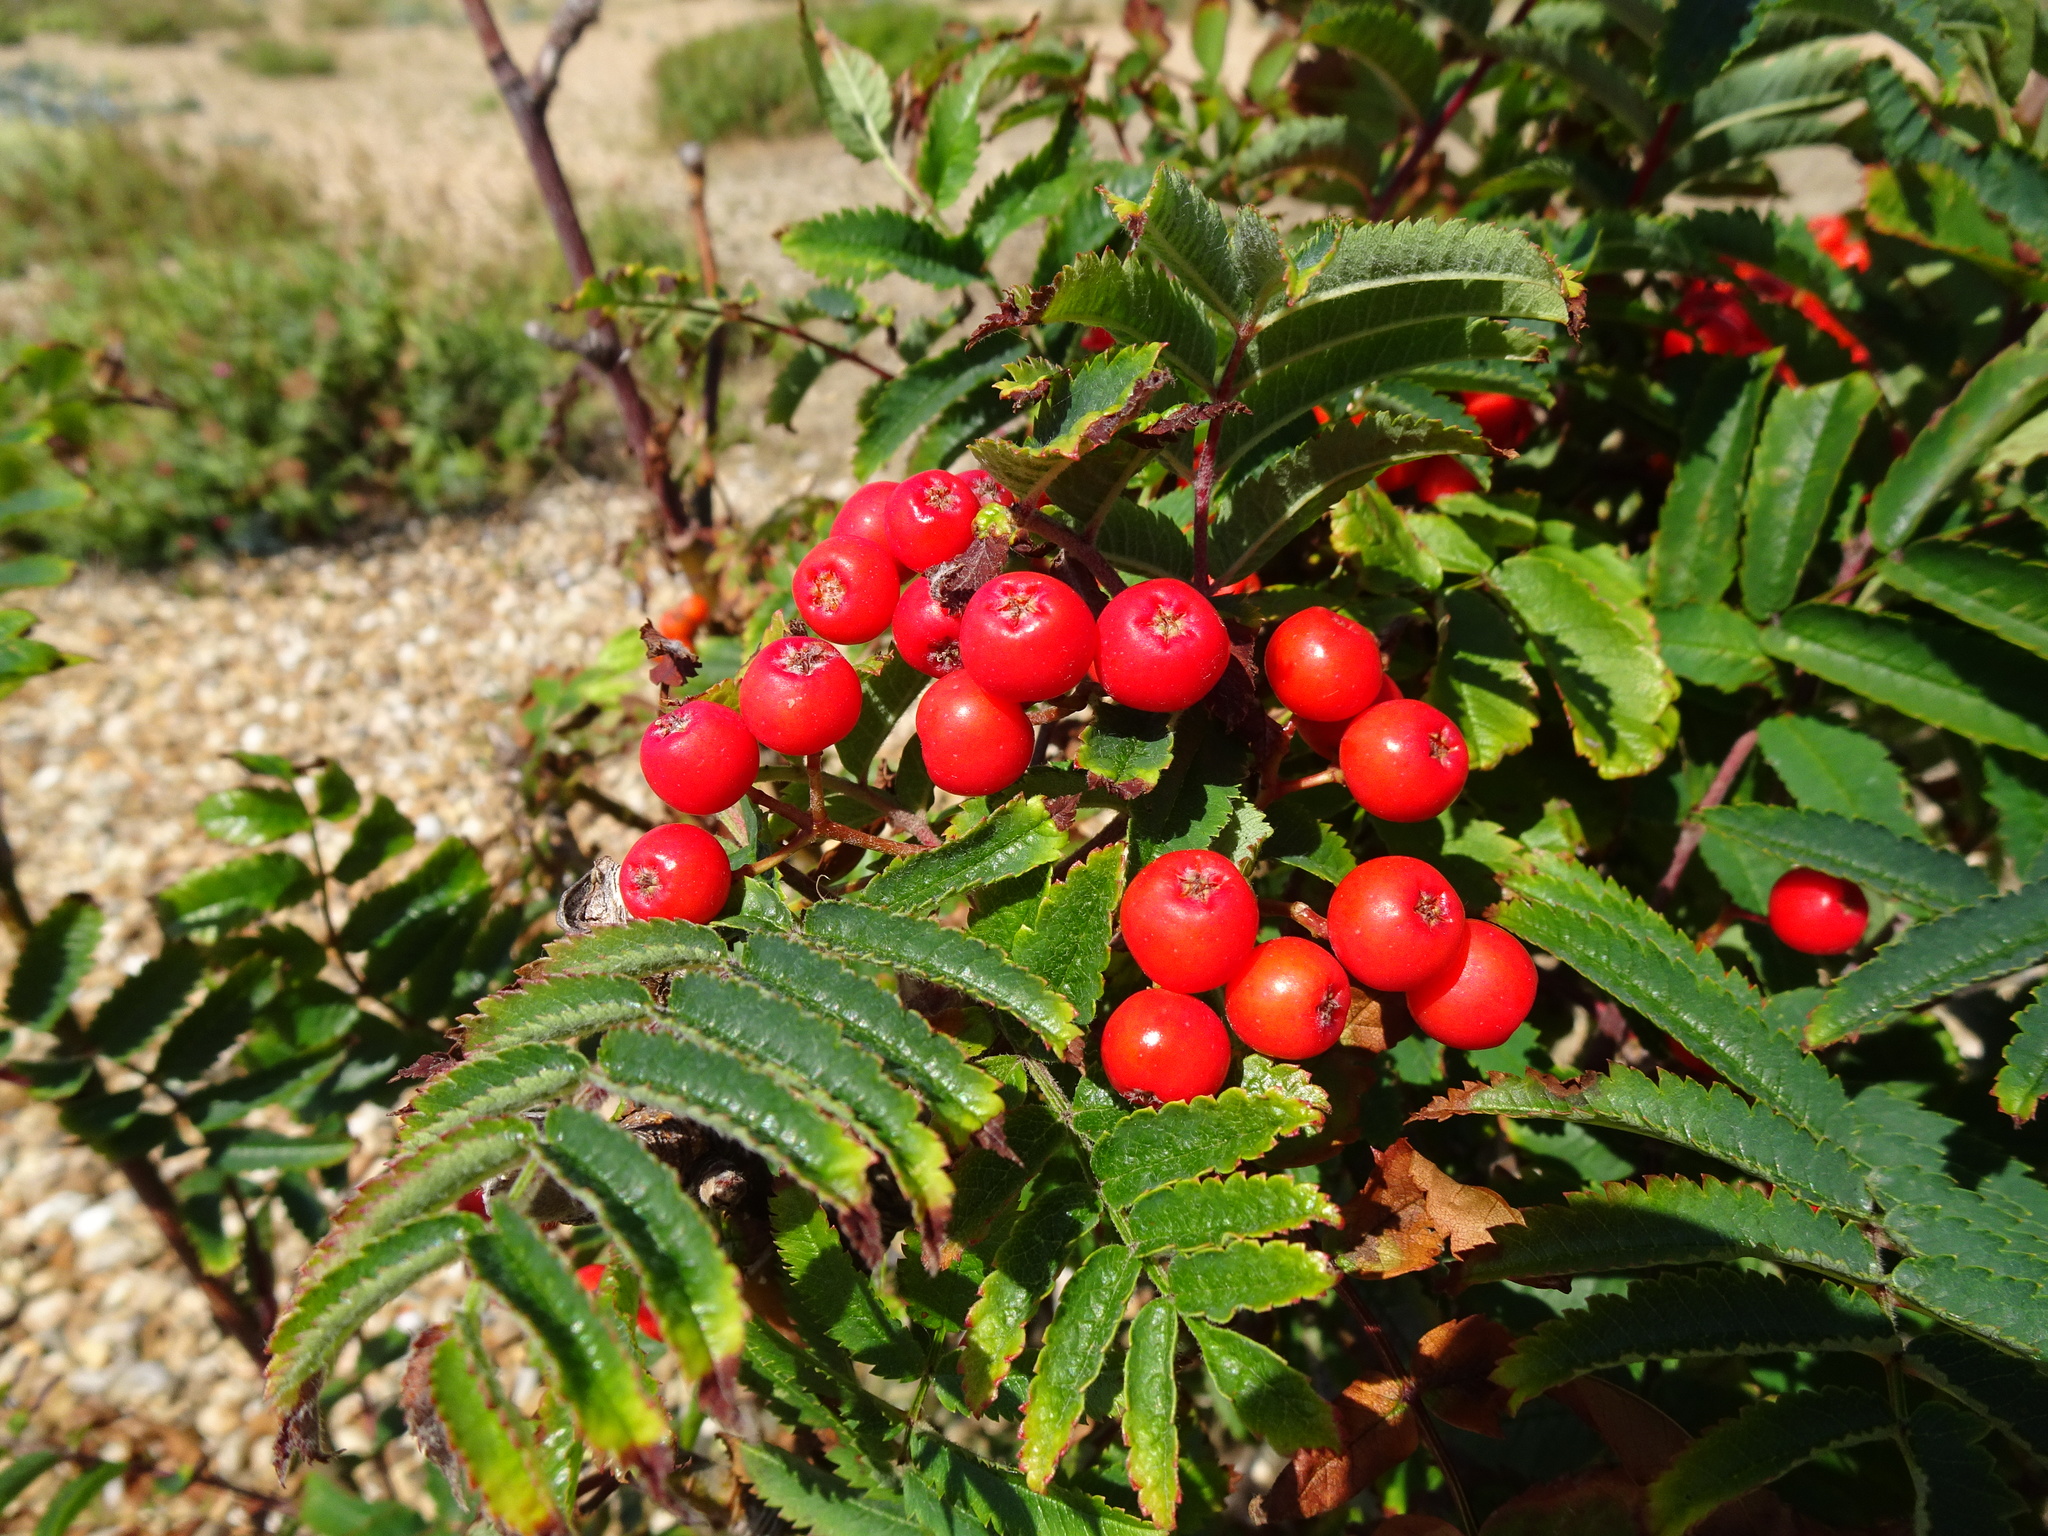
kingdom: Plantae
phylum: Tracheophyta
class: Magnoliopsida
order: Rosales
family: Rosaceae
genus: Sorbus
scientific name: Sorbus aucuparia
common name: Rowan
